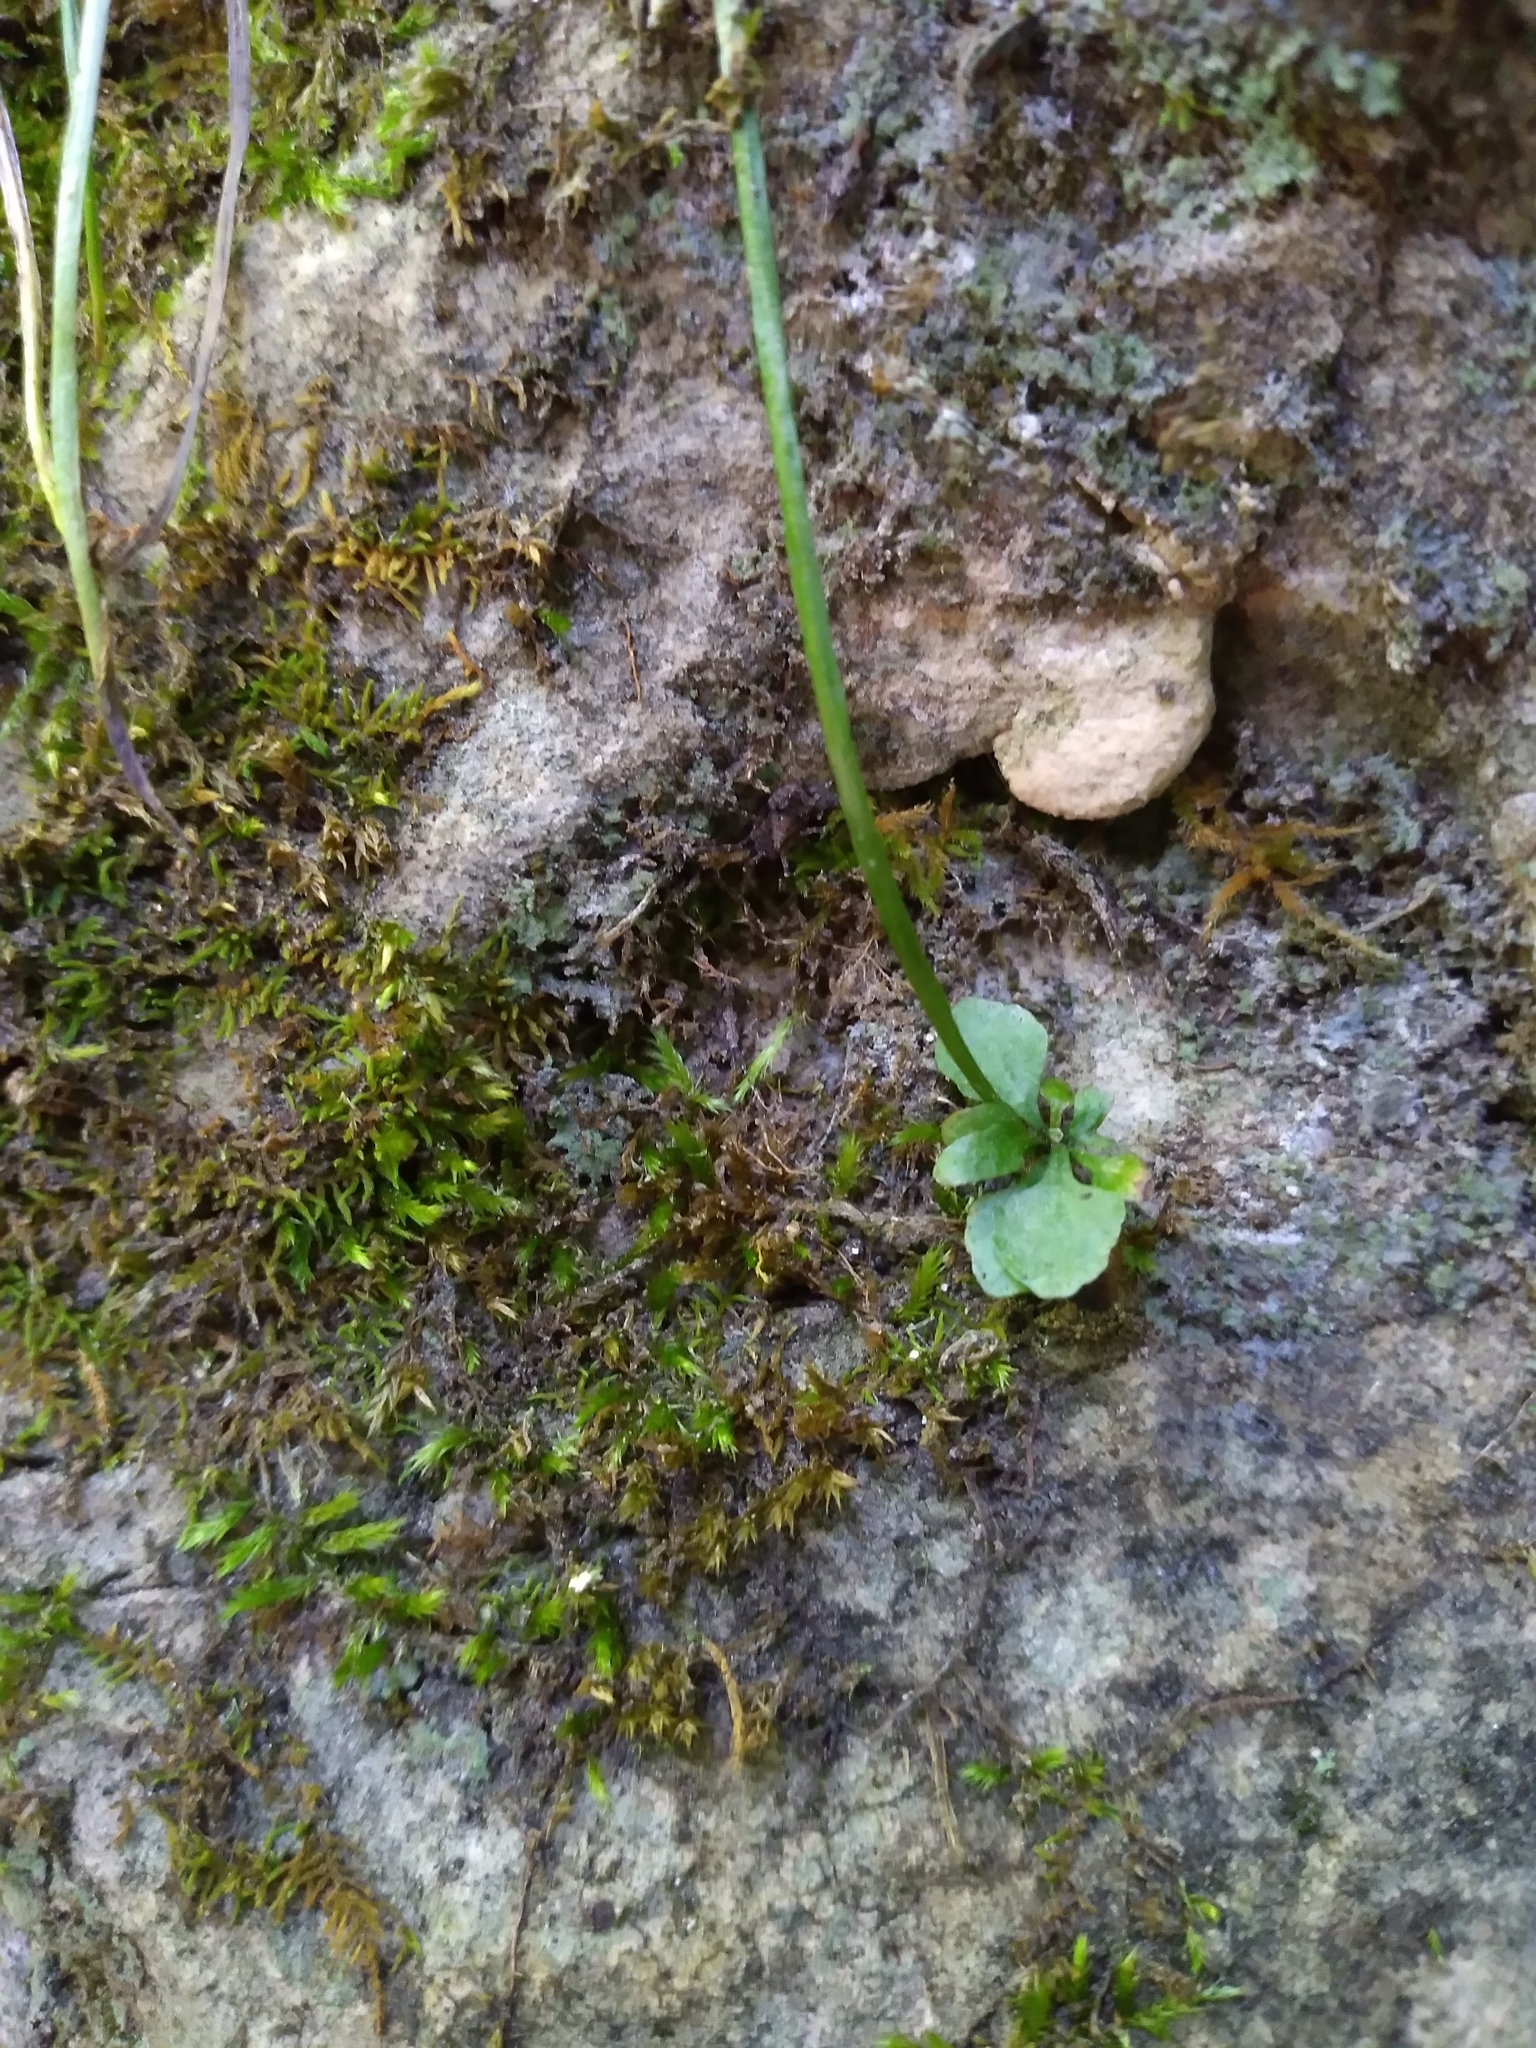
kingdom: Plantae
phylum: Tracheophyta
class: Polypodiopsida
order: Polypodiales
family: Aspleniaceae
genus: Asplenium
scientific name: Asplenium rhizophyllum
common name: Walking fern
